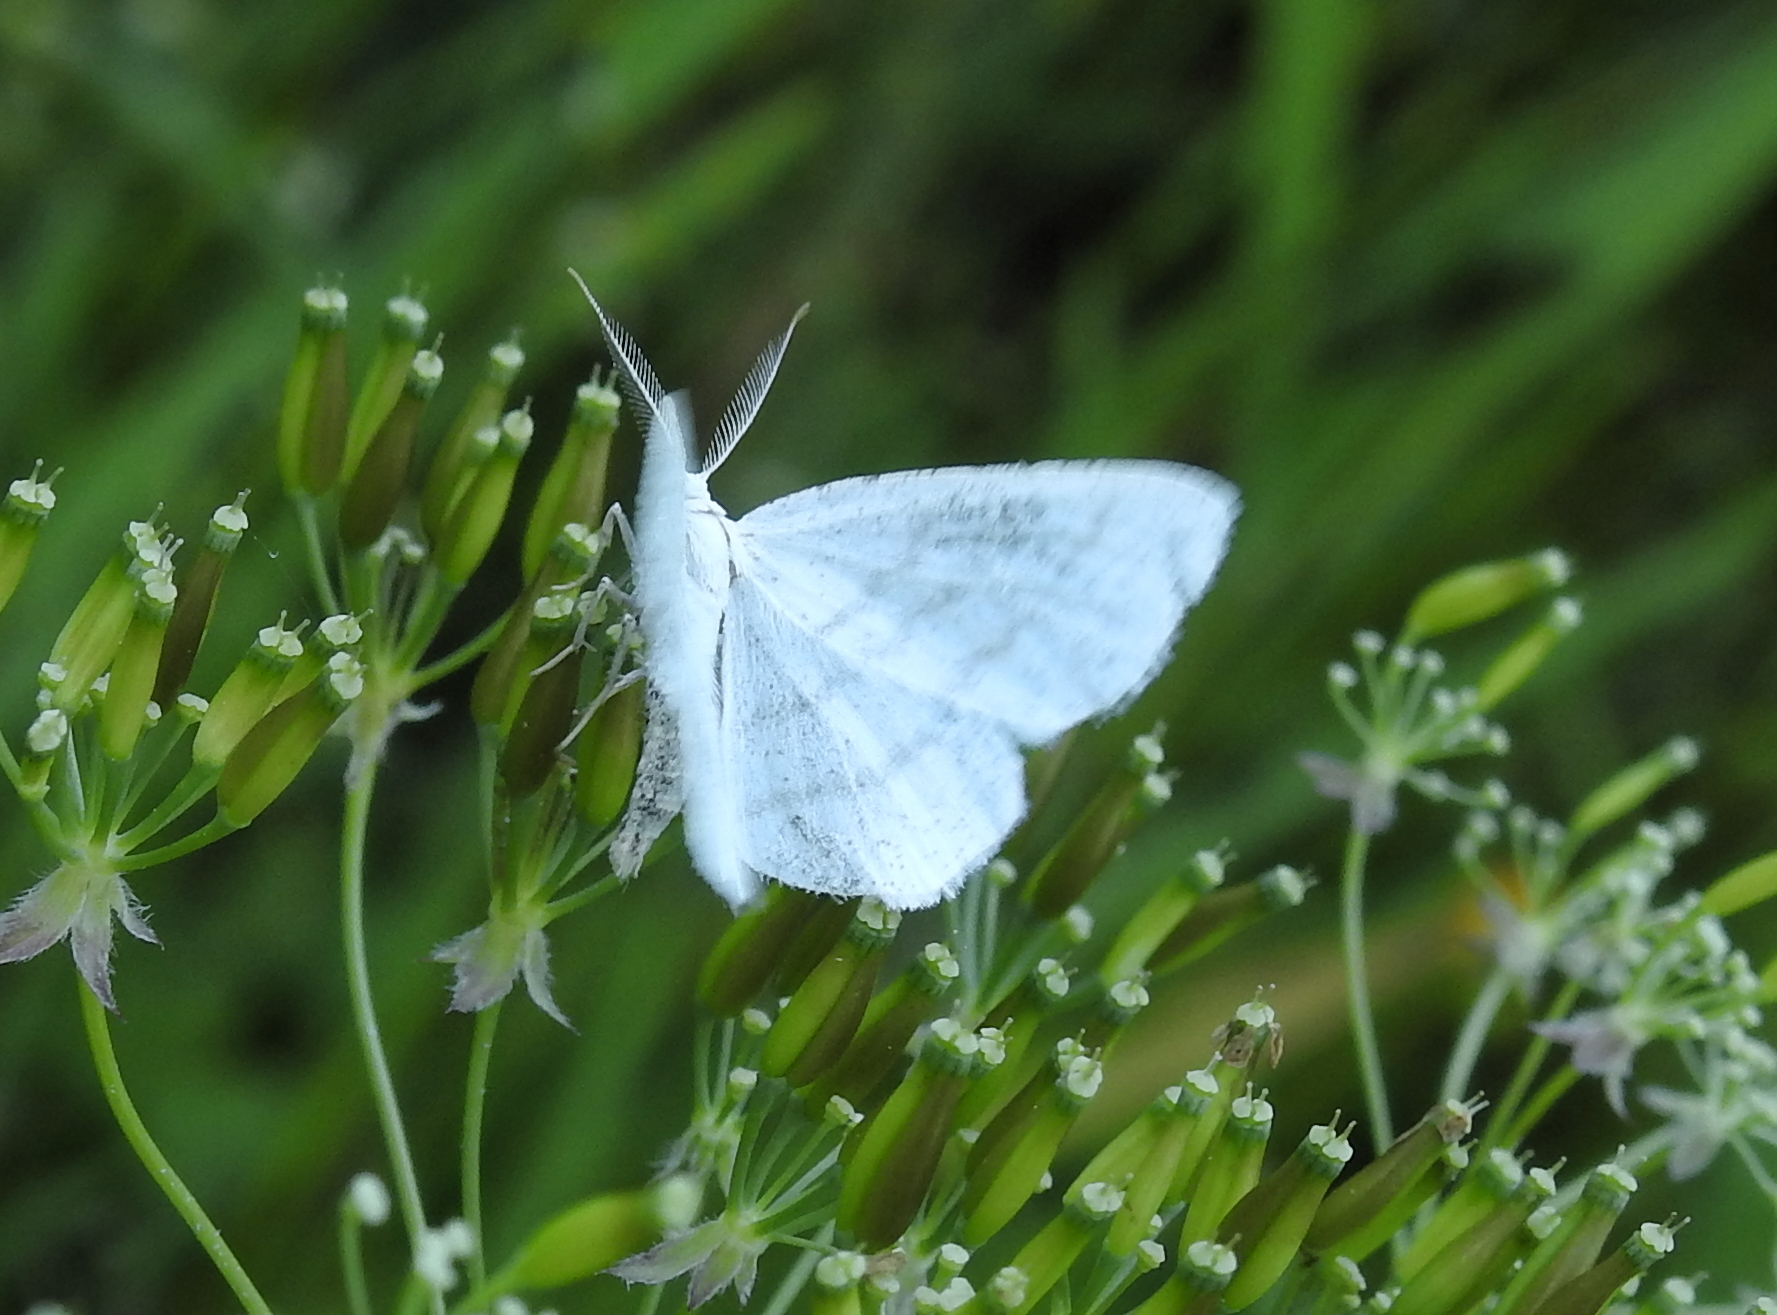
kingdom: Animalia
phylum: Arthropoda
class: Insecta
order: Lepidoptera
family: Geometridae
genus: Cabera
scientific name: Cabera pusaria
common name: Common white wave
